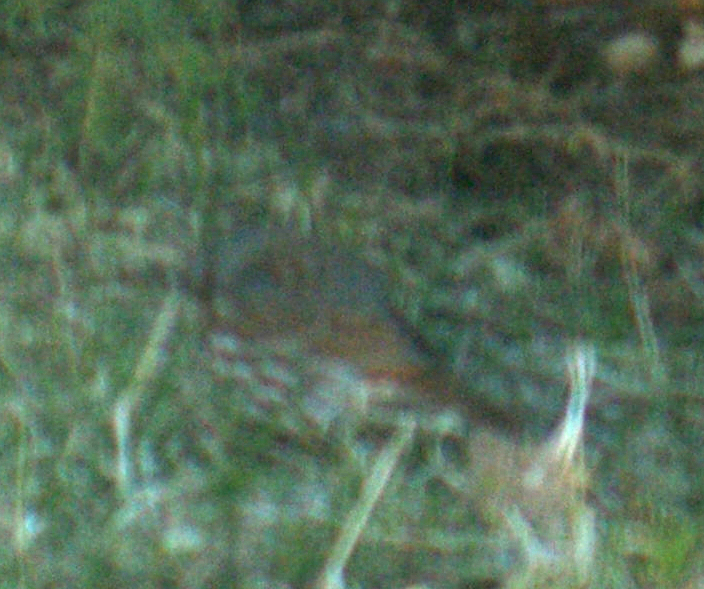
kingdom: Animalia
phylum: Chordata
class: Aves
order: Passeriformes
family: Passerellidae
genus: Passerella
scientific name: Passerella iliaca
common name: Fox sparrow
